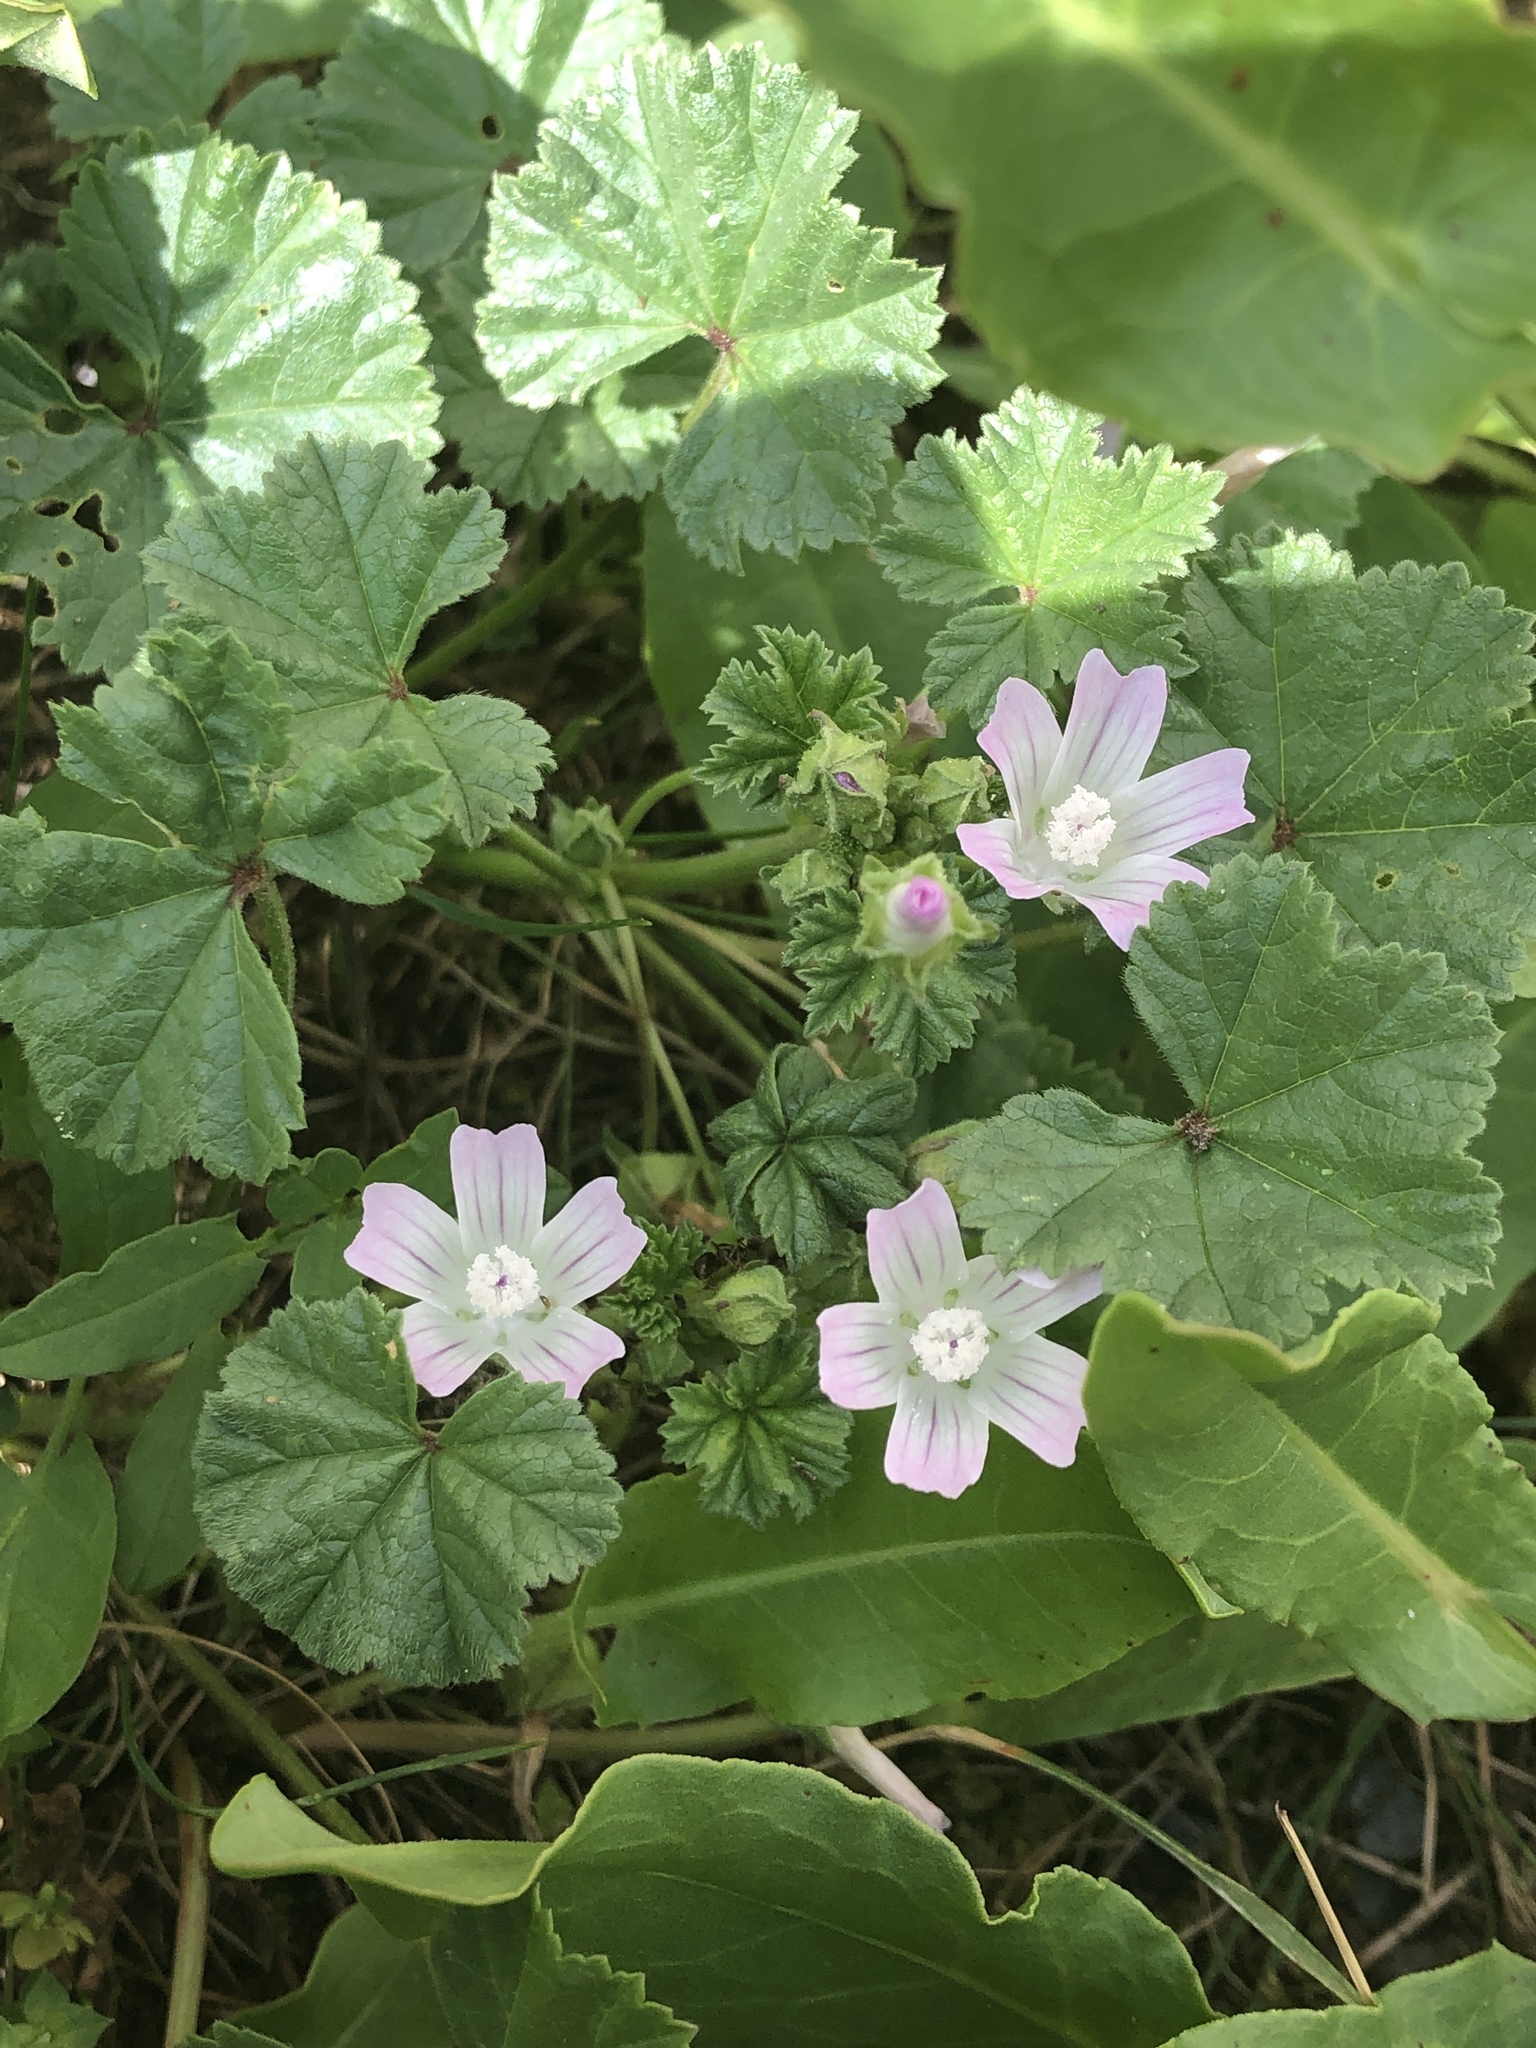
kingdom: Plantae
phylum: Tracheophyta
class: Magnoliopsida
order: Malvales
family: Malvaceae
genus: Malva
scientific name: Malva neglecta
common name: Common mallow
